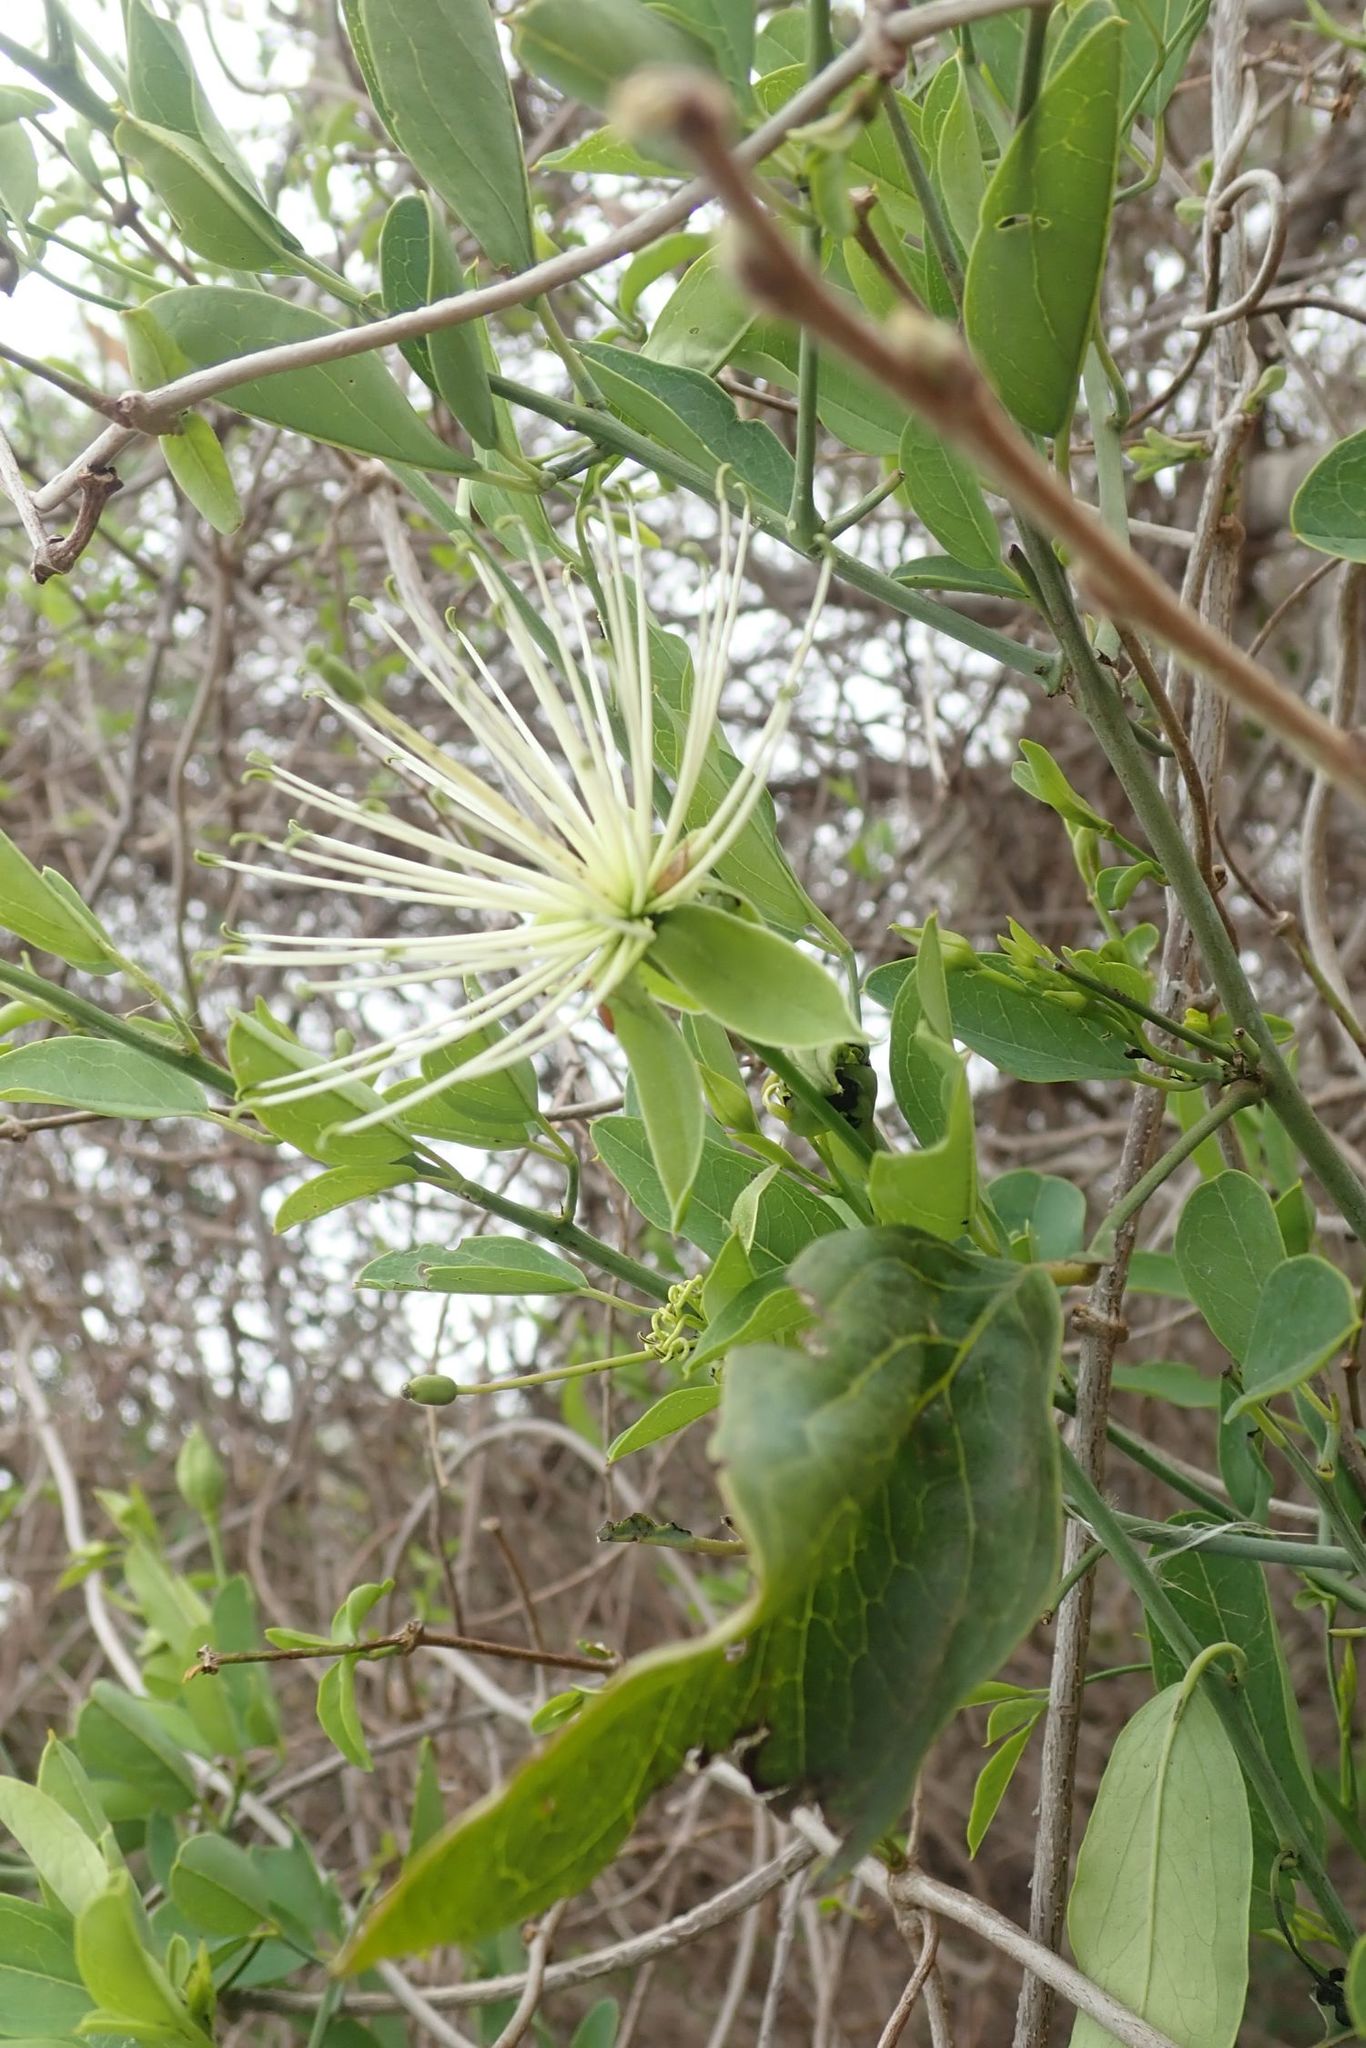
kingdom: Plantae
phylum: Tracheophyta
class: Magnoliopsida
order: Brassicales
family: Capparaceae
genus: Maerua
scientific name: Maerua juncea
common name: Rough-skinned bush cherry
